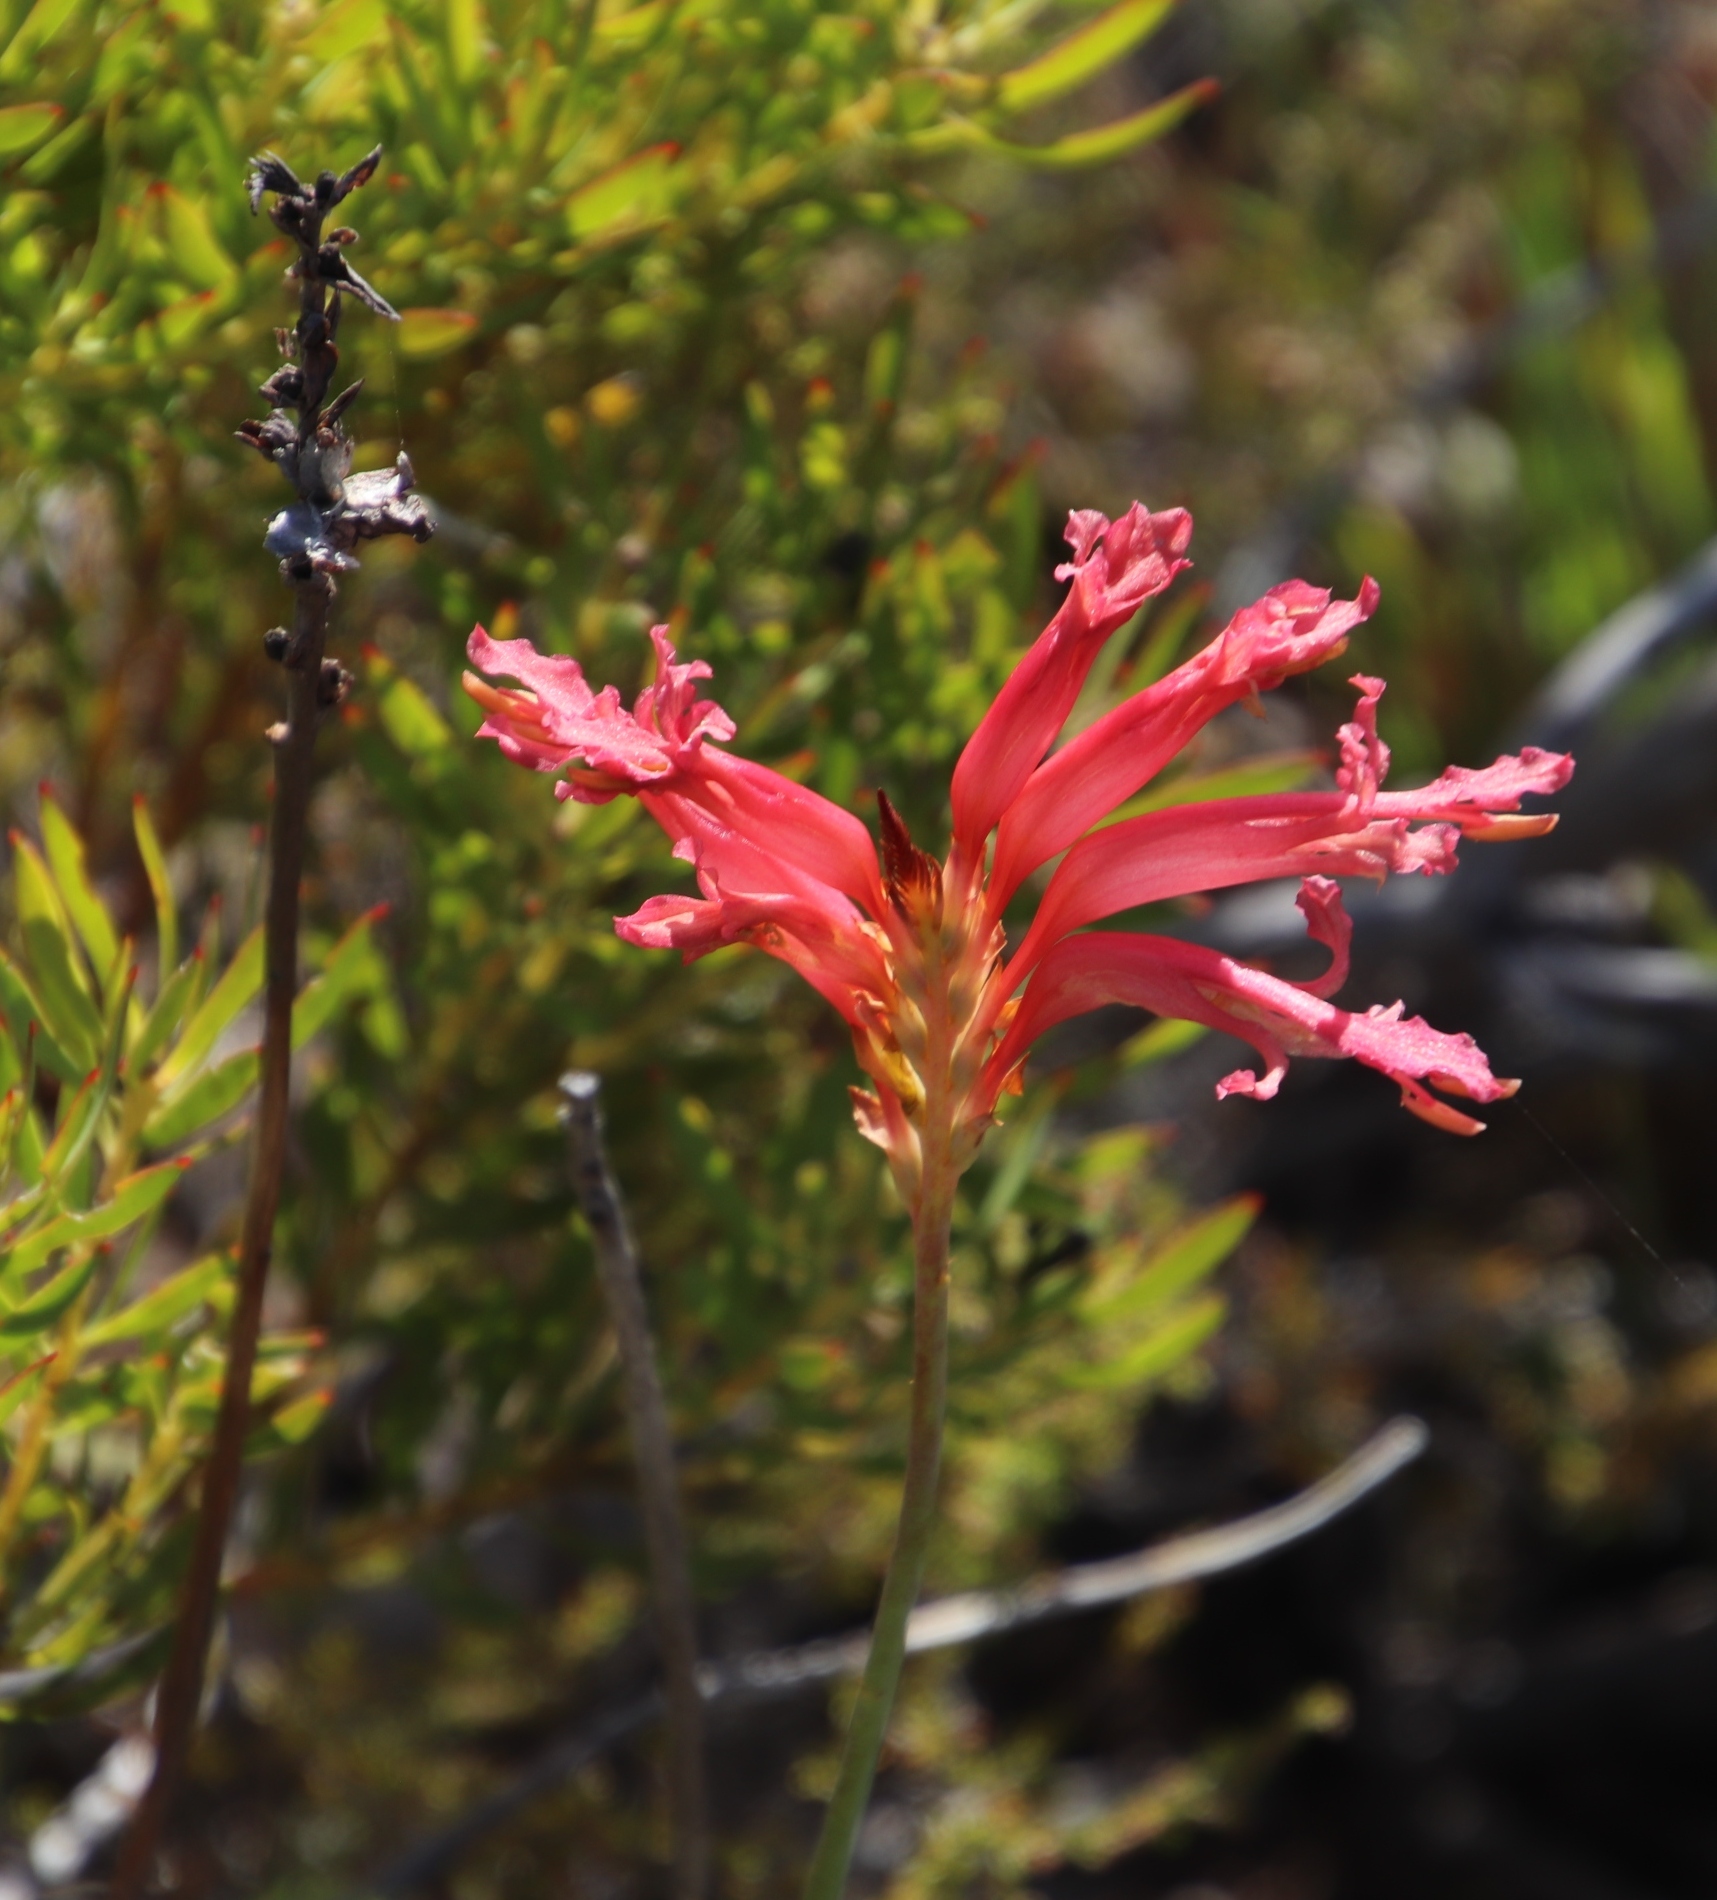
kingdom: Plantae
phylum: Tracheophyta
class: Liliopsida
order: Asparagales
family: Iridaceae
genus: Tritoniopsis
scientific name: Tritoniopsis antholyza
